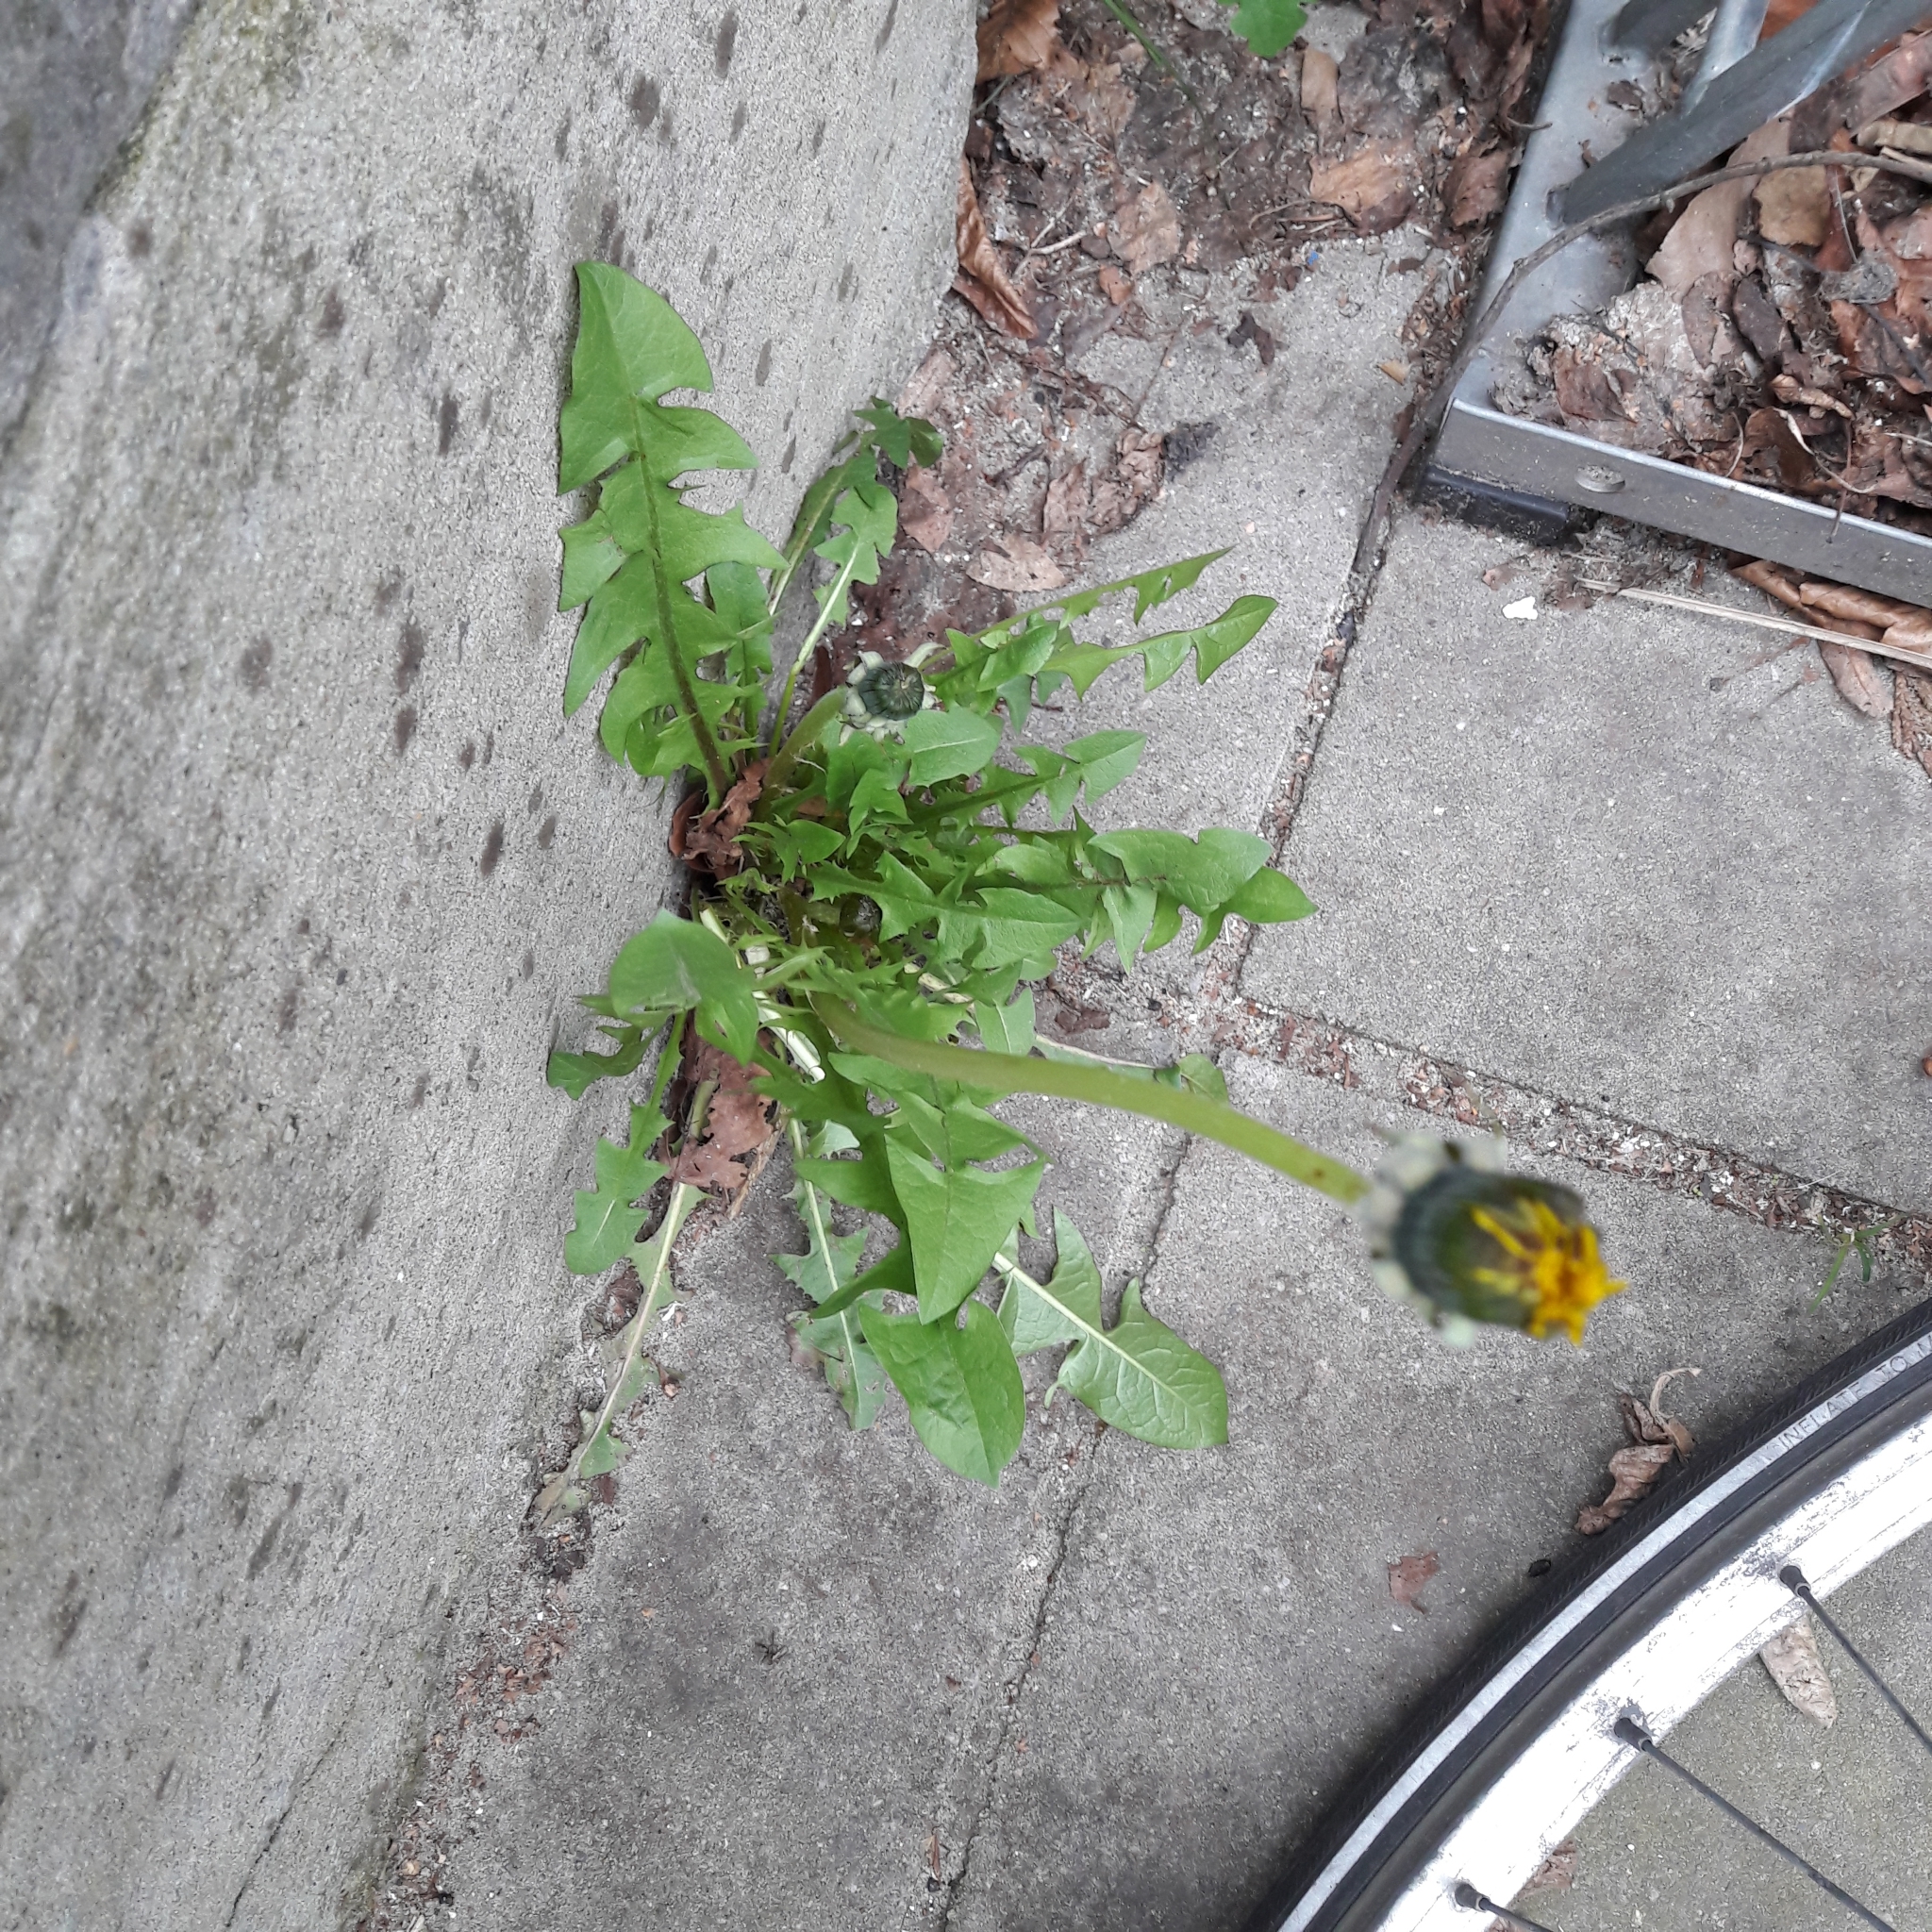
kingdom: Plantae
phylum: Tracheophyta
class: Magnoliopsida
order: Asterales
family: Asteraceae
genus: Taraxacum
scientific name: Taraxacum officinale
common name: Common dandelion
